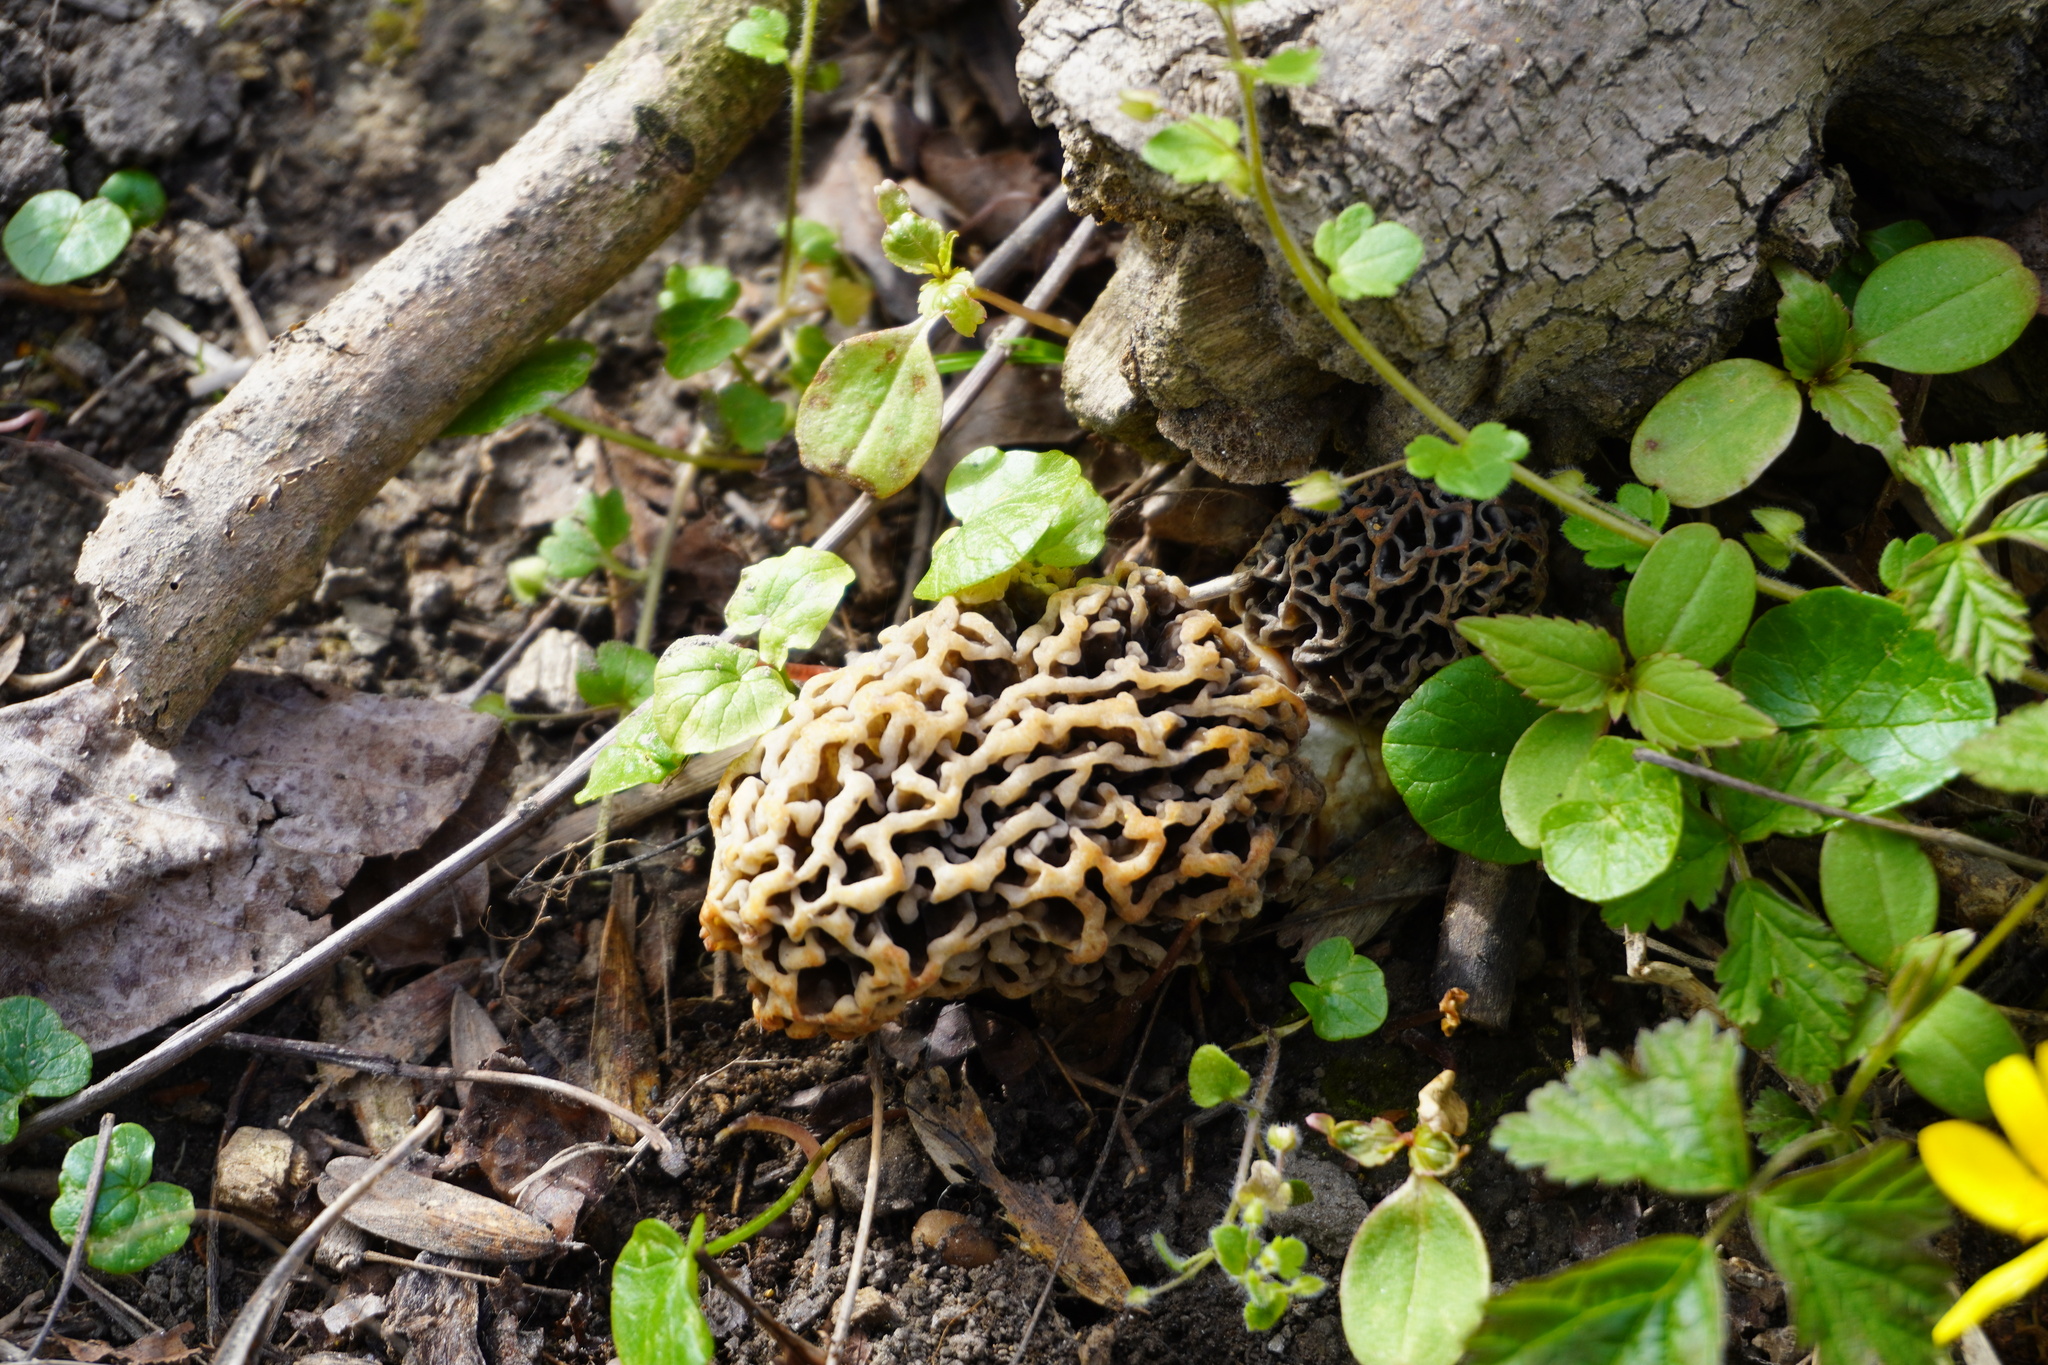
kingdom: Fungi
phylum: Ascomycota
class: Pezizomycetes
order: Pezizales
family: Morchellaceae
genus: Morchella
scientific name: Morchella vulgaris
